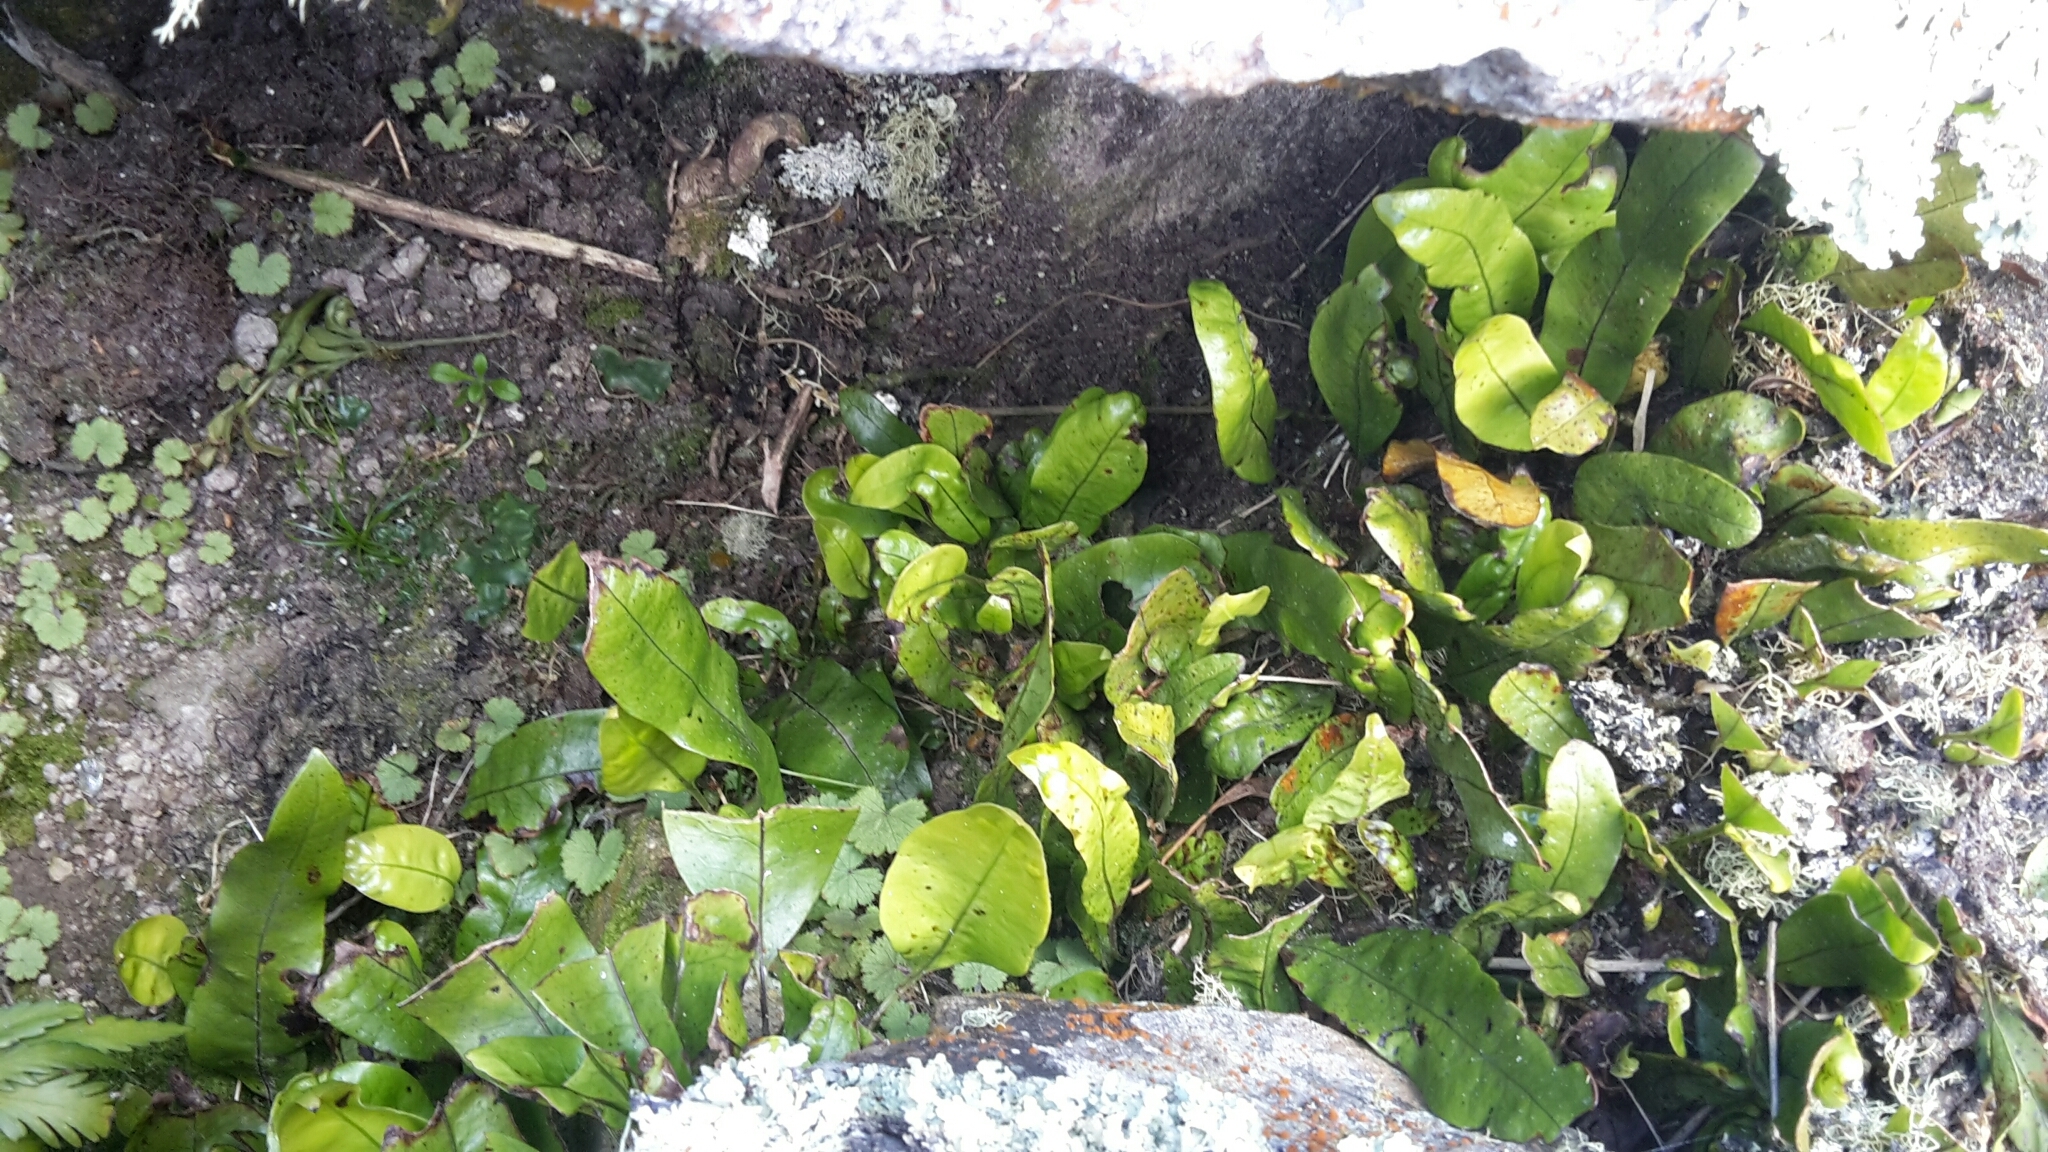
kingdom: Plantae
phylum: Tracheophyta
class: Polypodiopsida
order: Polypodiales
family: Polypodiaceae
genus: Lecanopteris
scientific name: Lecanopteris pustulata
